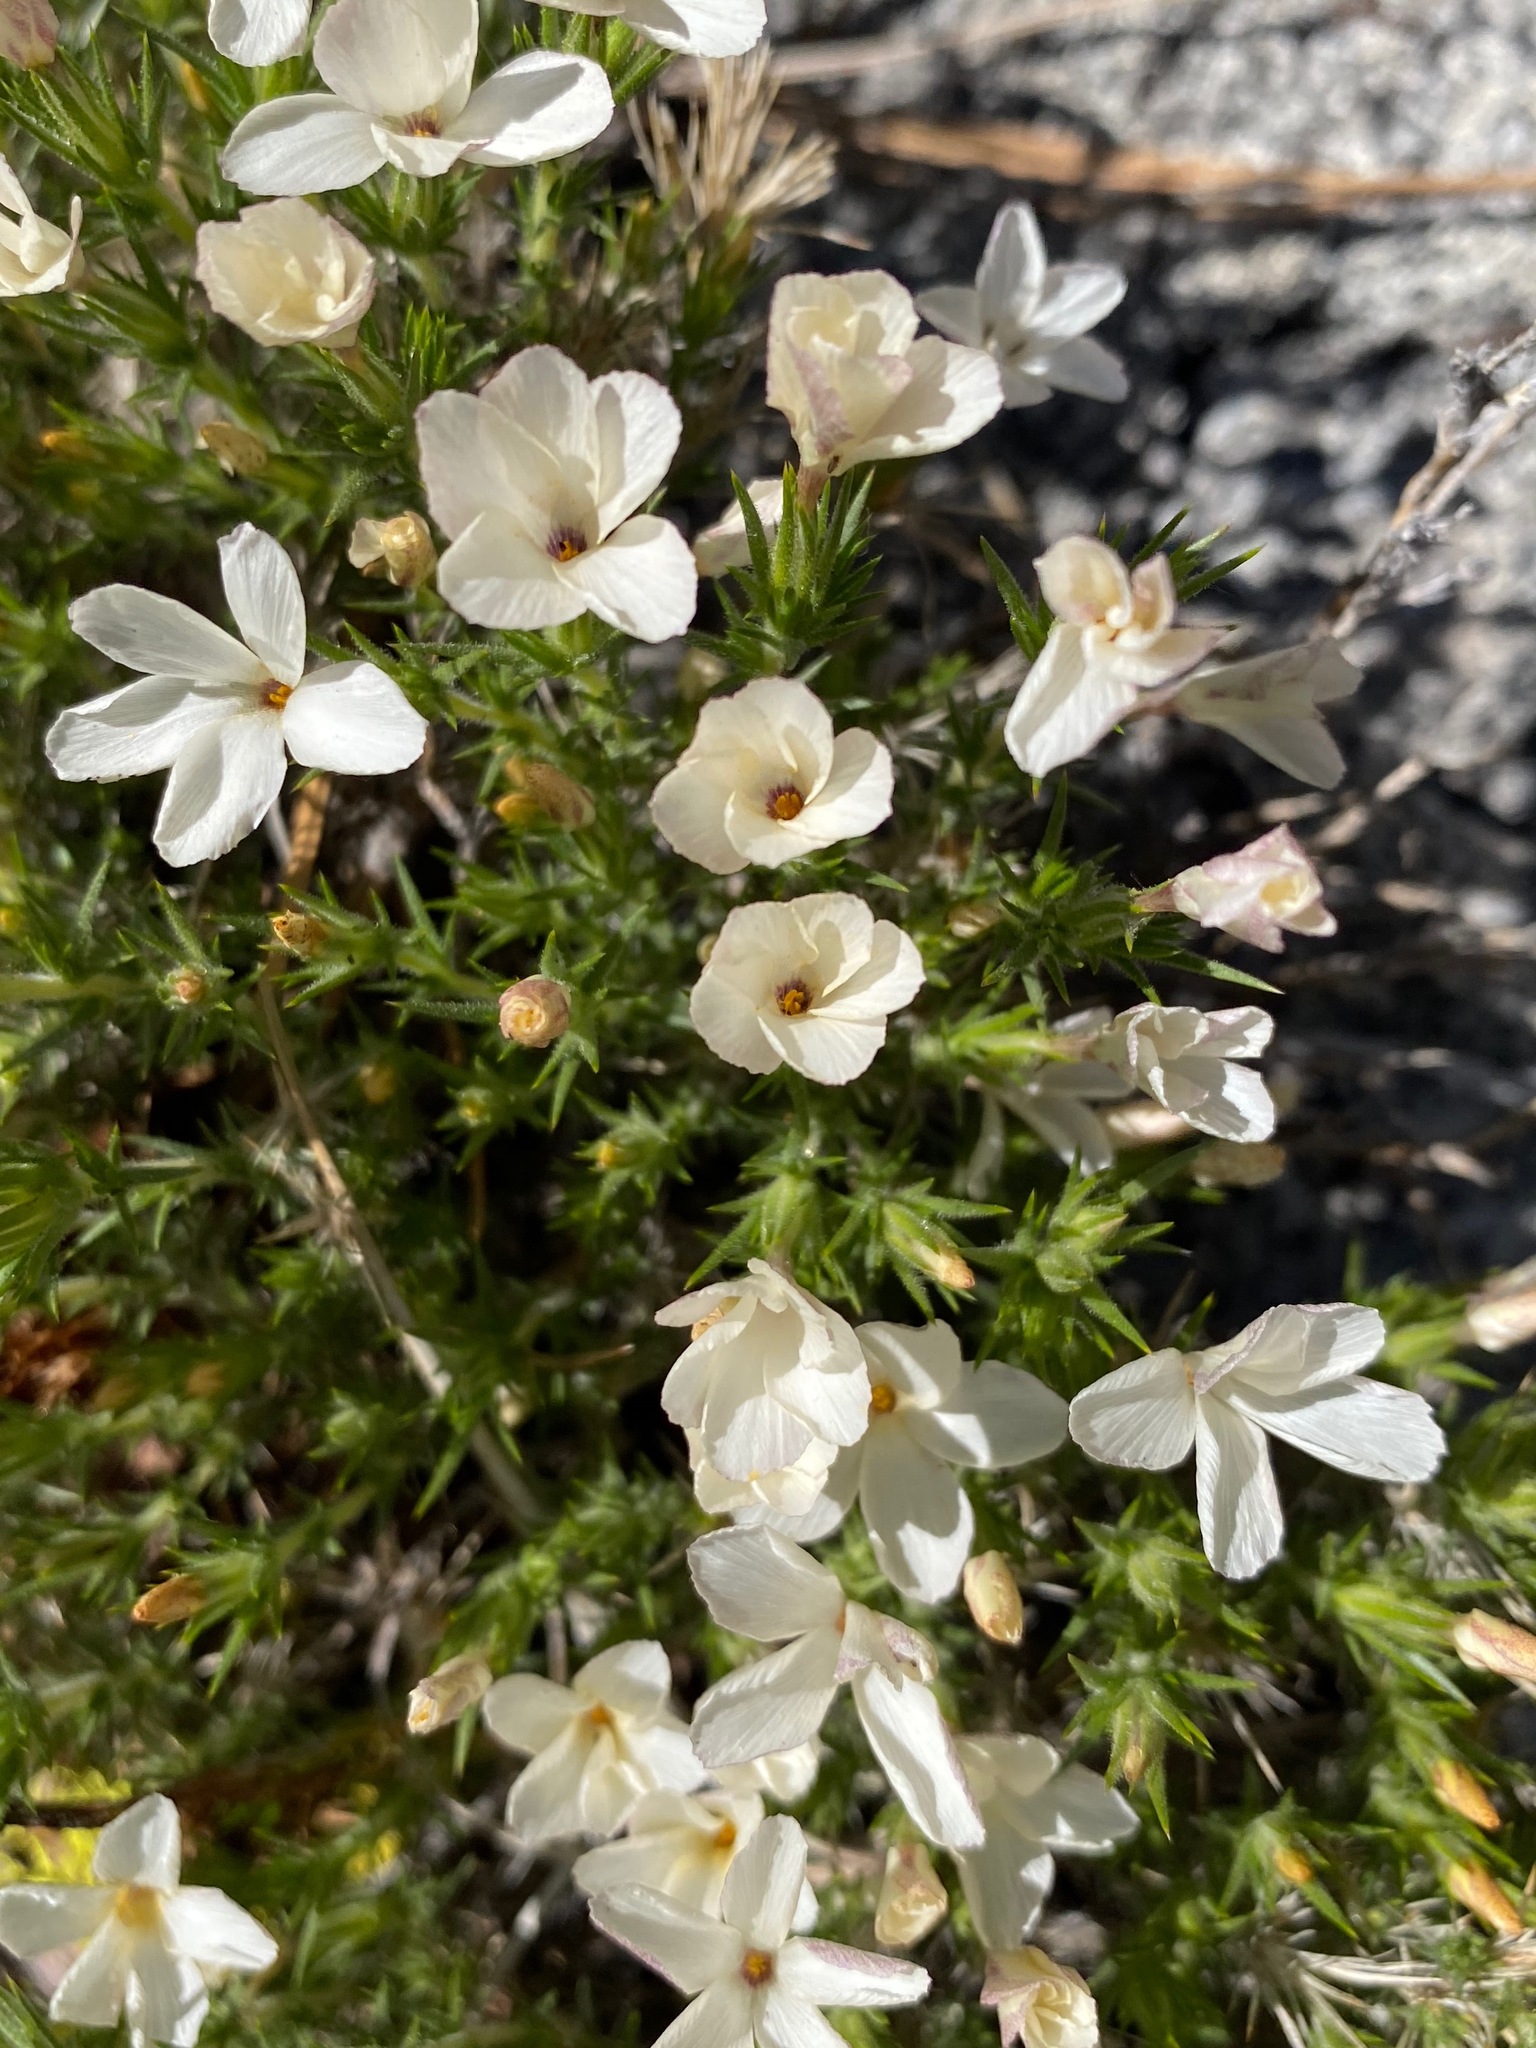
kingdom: Plantae
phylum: Tracheophyta
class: Magnoliopsida
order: Ericales
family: Polemoniaceae
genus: Linanthus
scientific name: Linanthus pungens
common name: Granite prickly phlox
